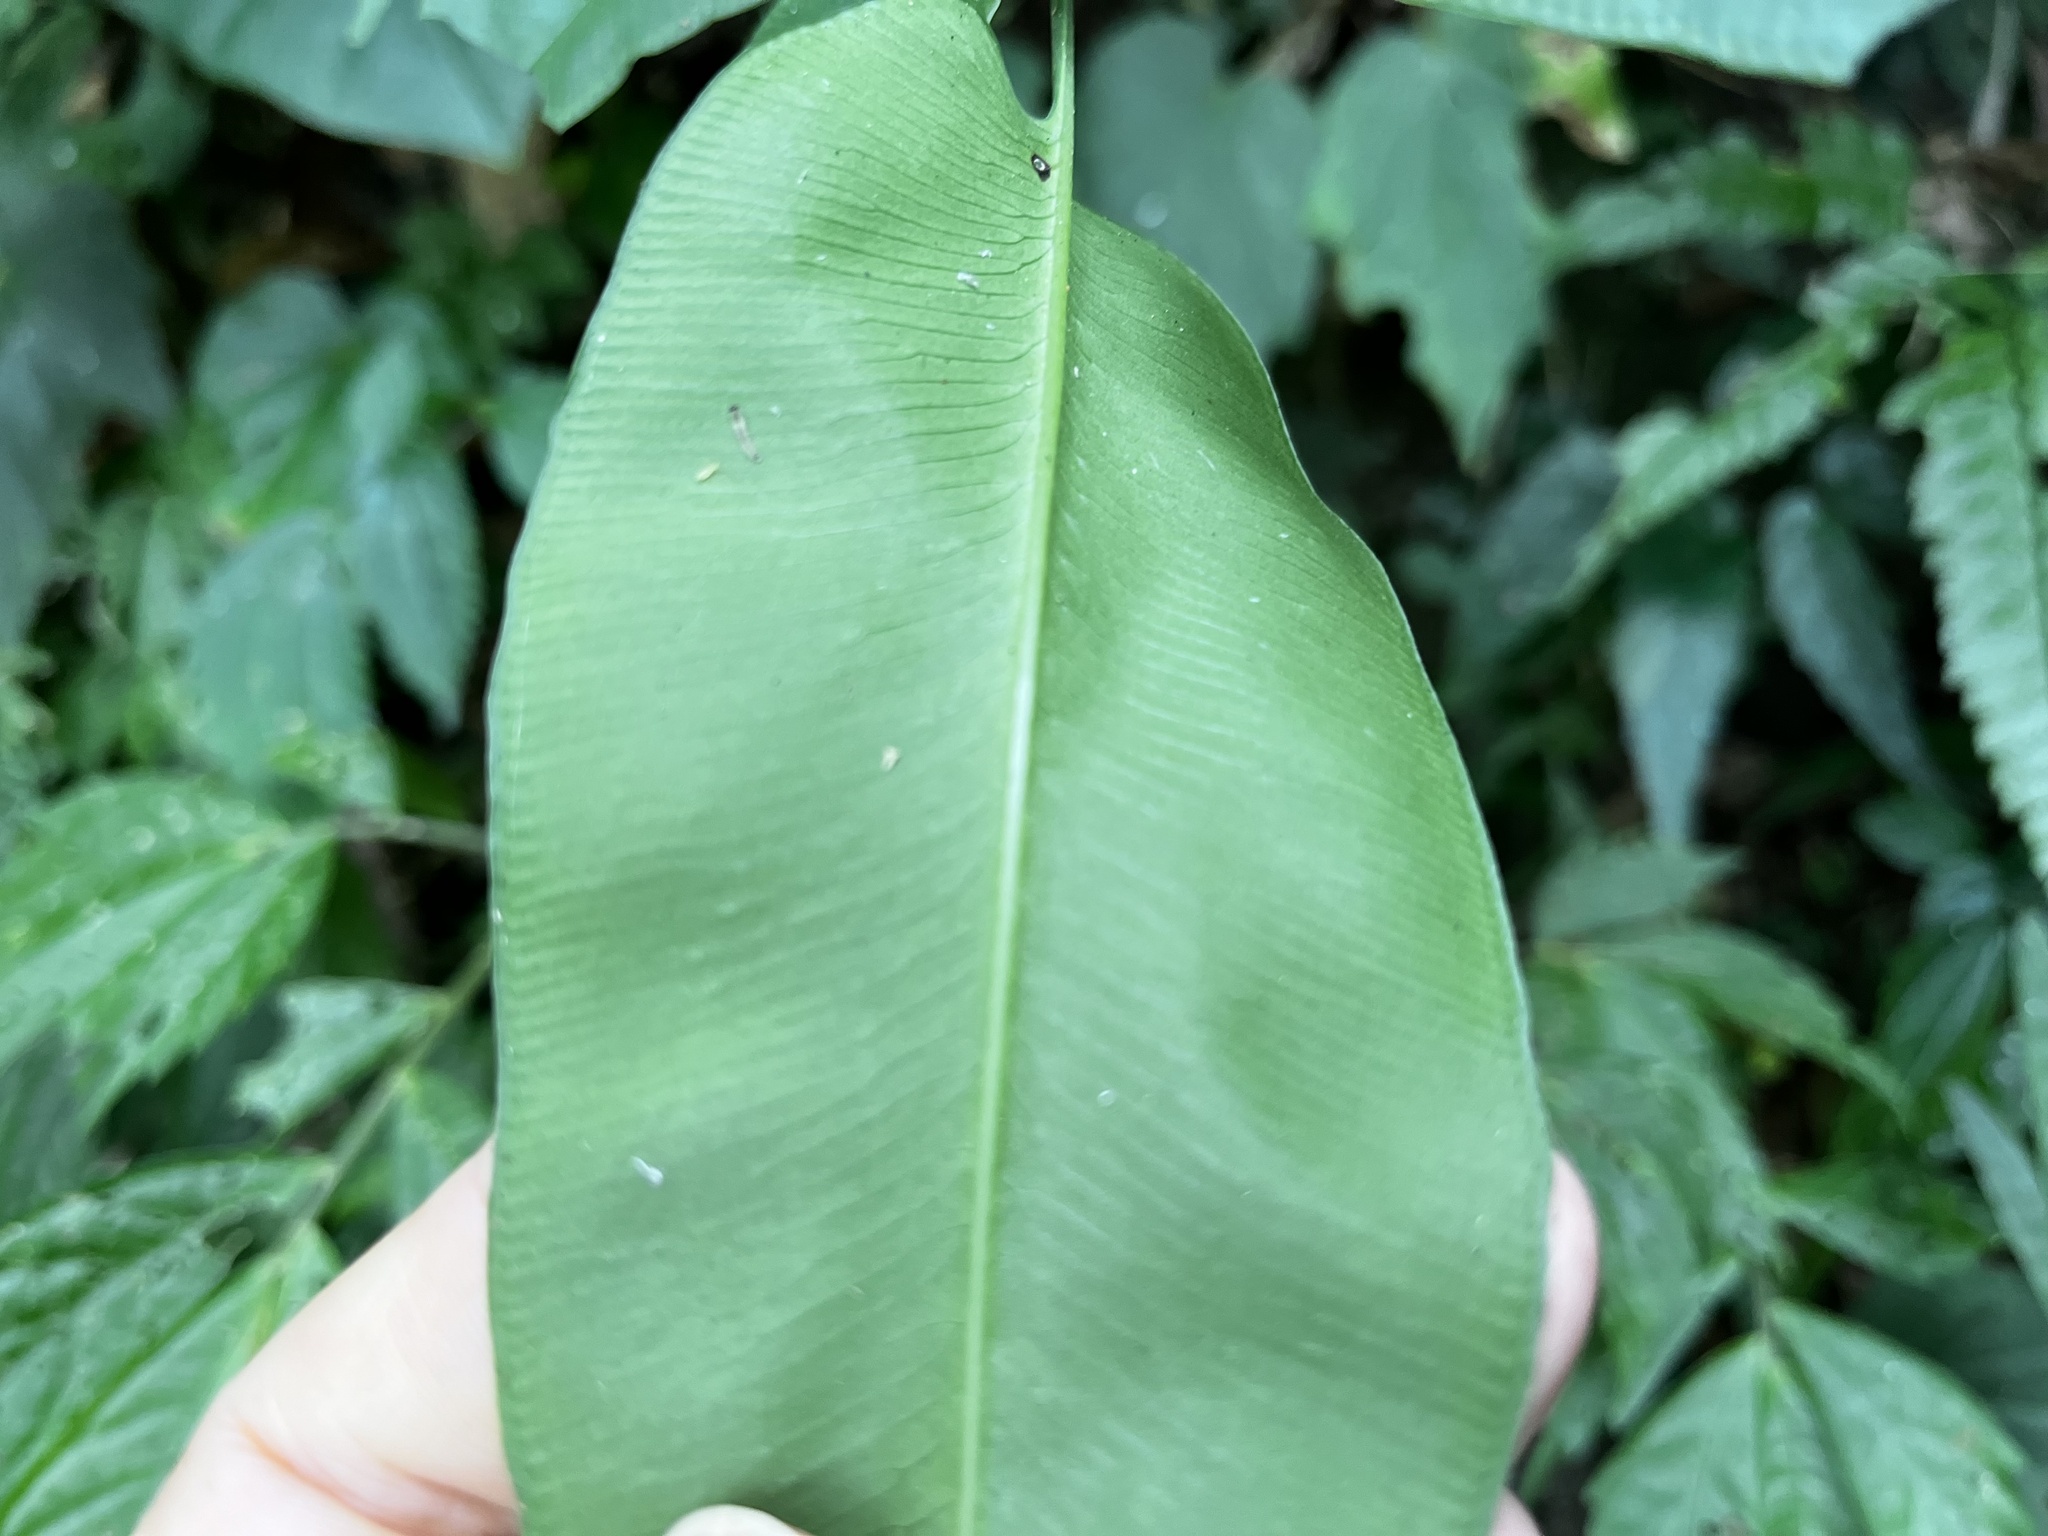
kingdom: Plantae
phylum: Tracheophyta
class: Polypodiopsida
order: Polypodiales
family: Pteridaceae
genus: Coniogramme
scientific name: Coniogramme fraxinea
